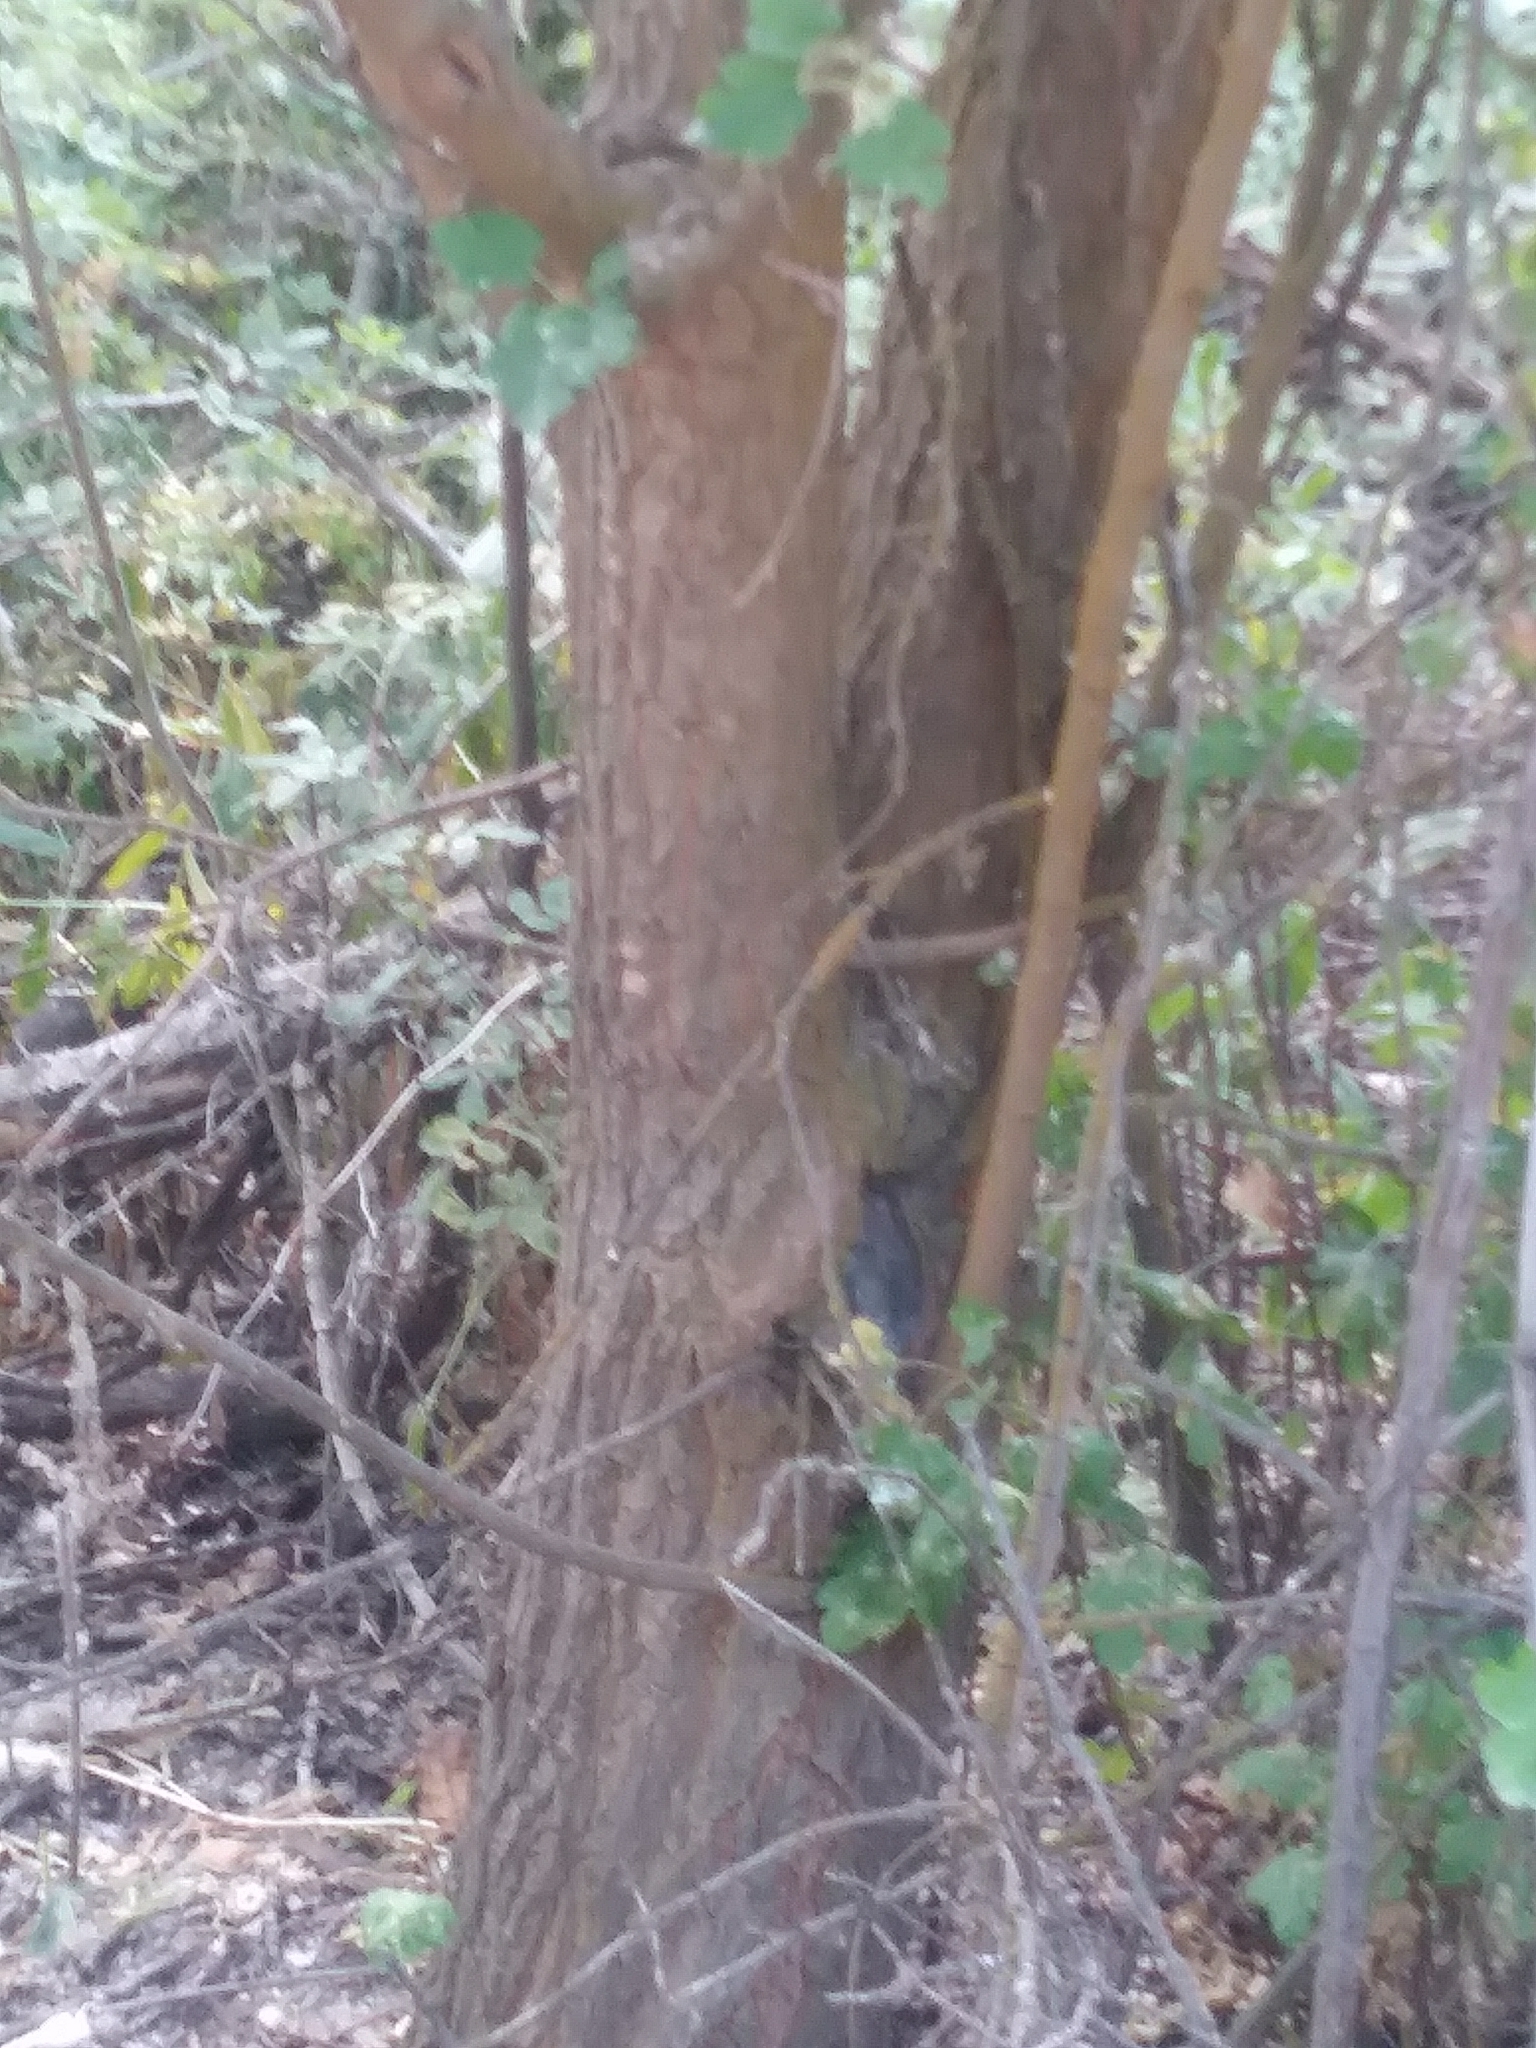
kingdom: Plantae
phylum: Tracheophyta
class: Magnoliopsida
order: Rosales
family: Moraceae
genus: Morus
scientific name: Morus alba
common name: White mulberry
